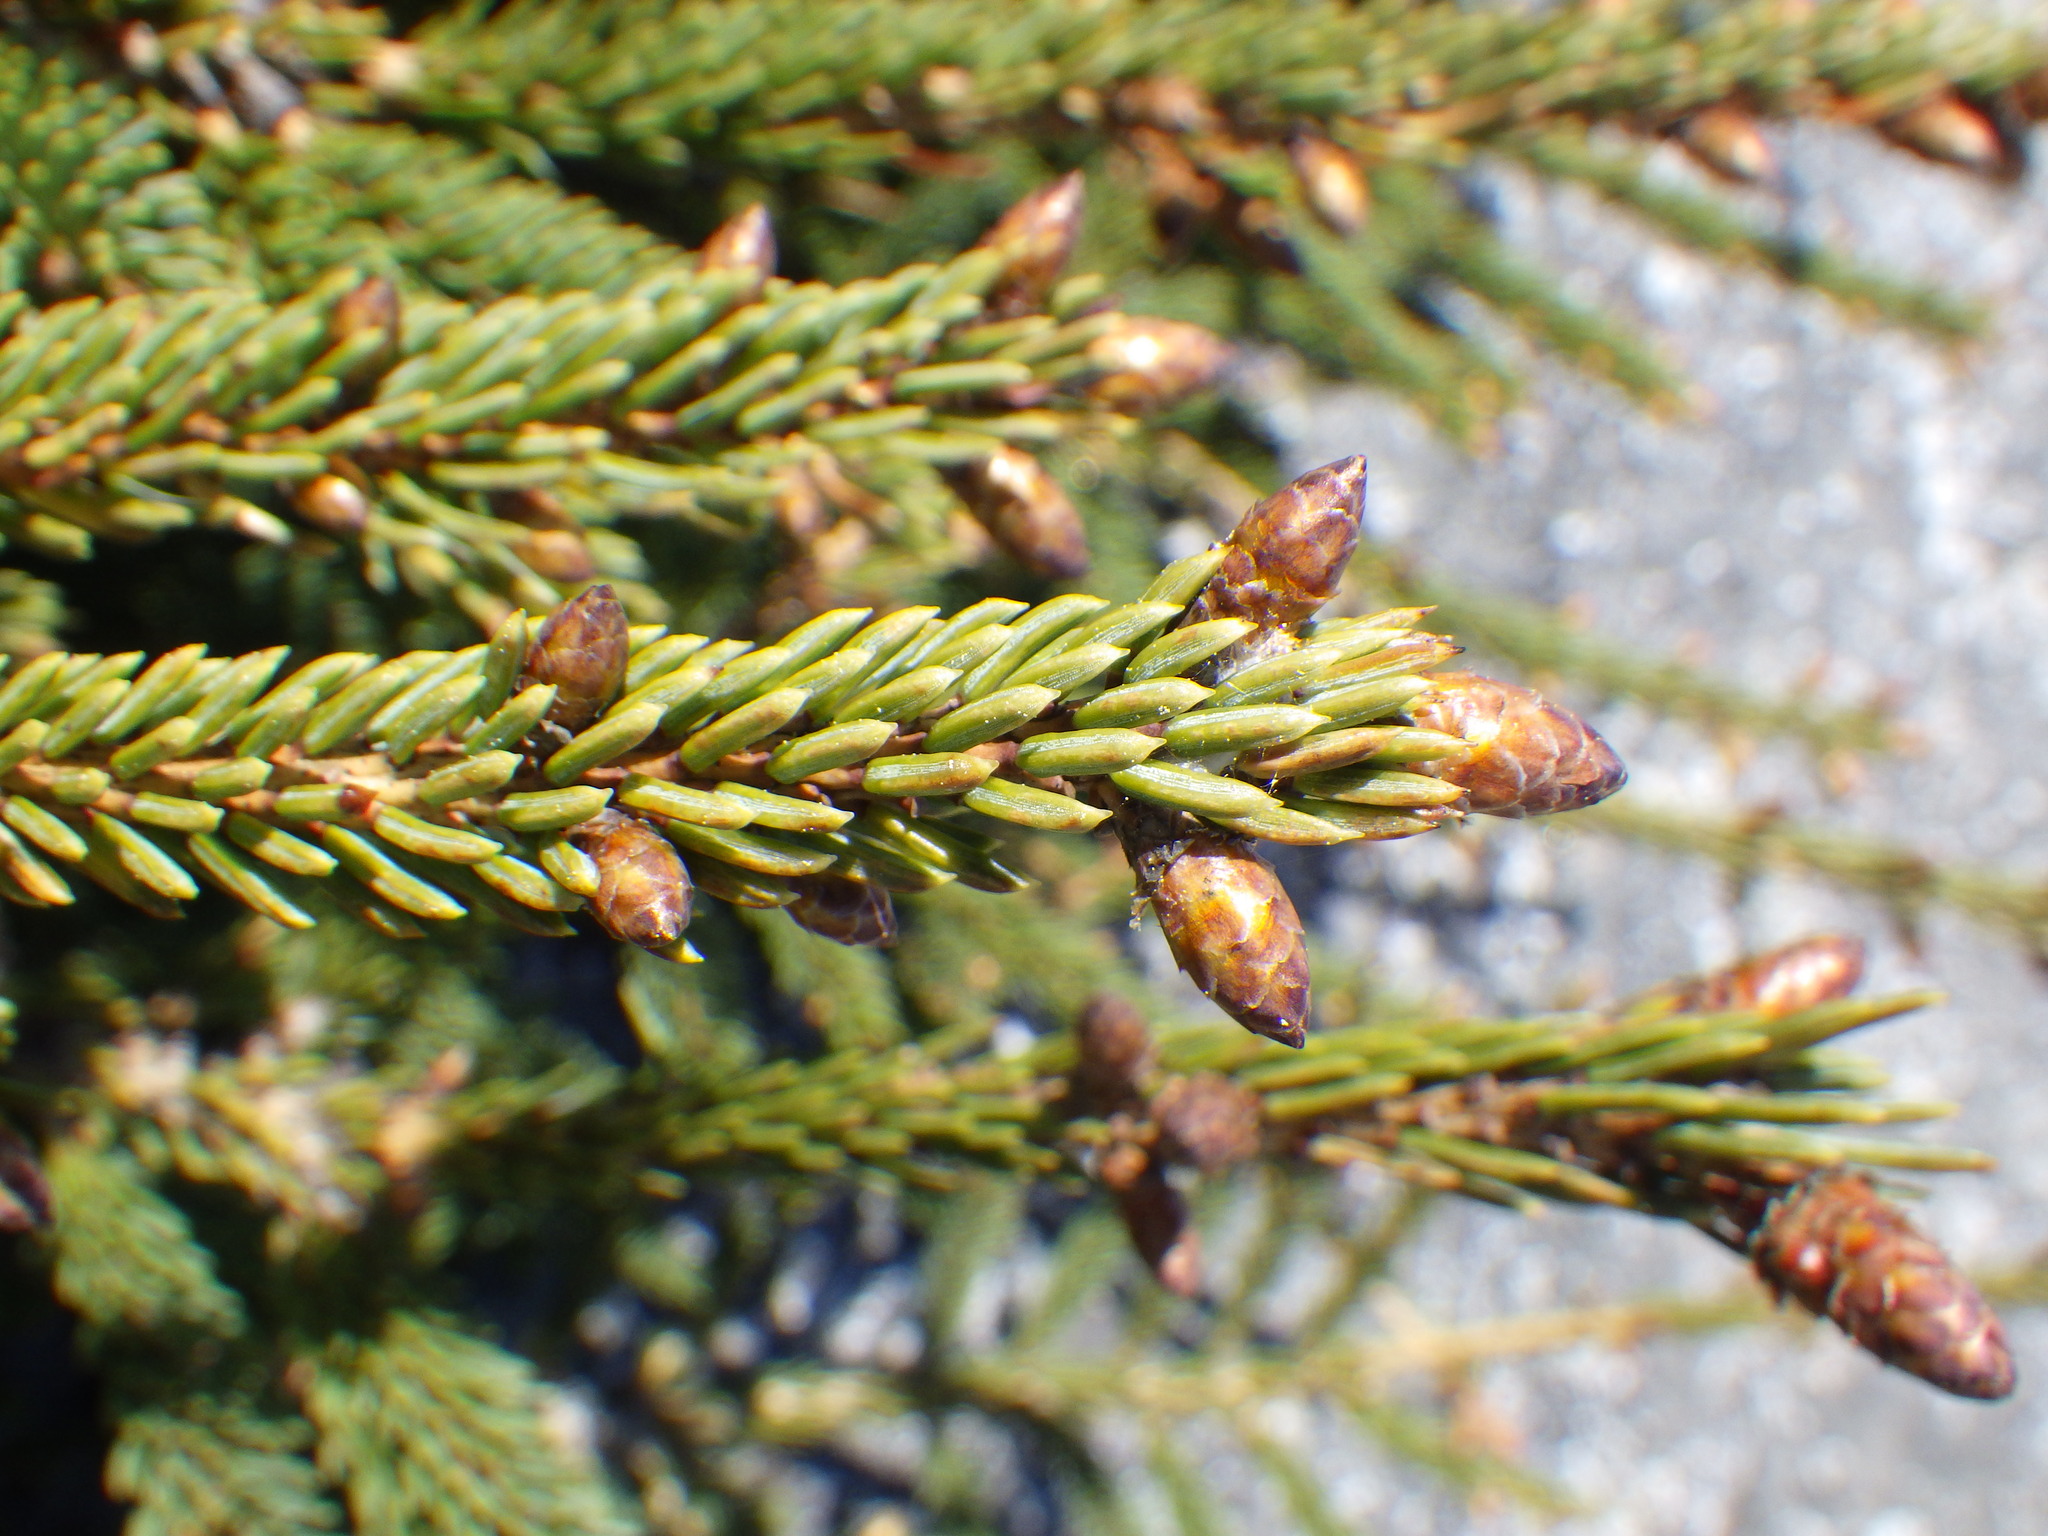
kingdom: Plantae
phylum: Tracheophyta
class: Pinopsida
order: Pinales
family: Pinaceae
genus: Picea
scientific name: Picea mariana
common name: Black spruce
